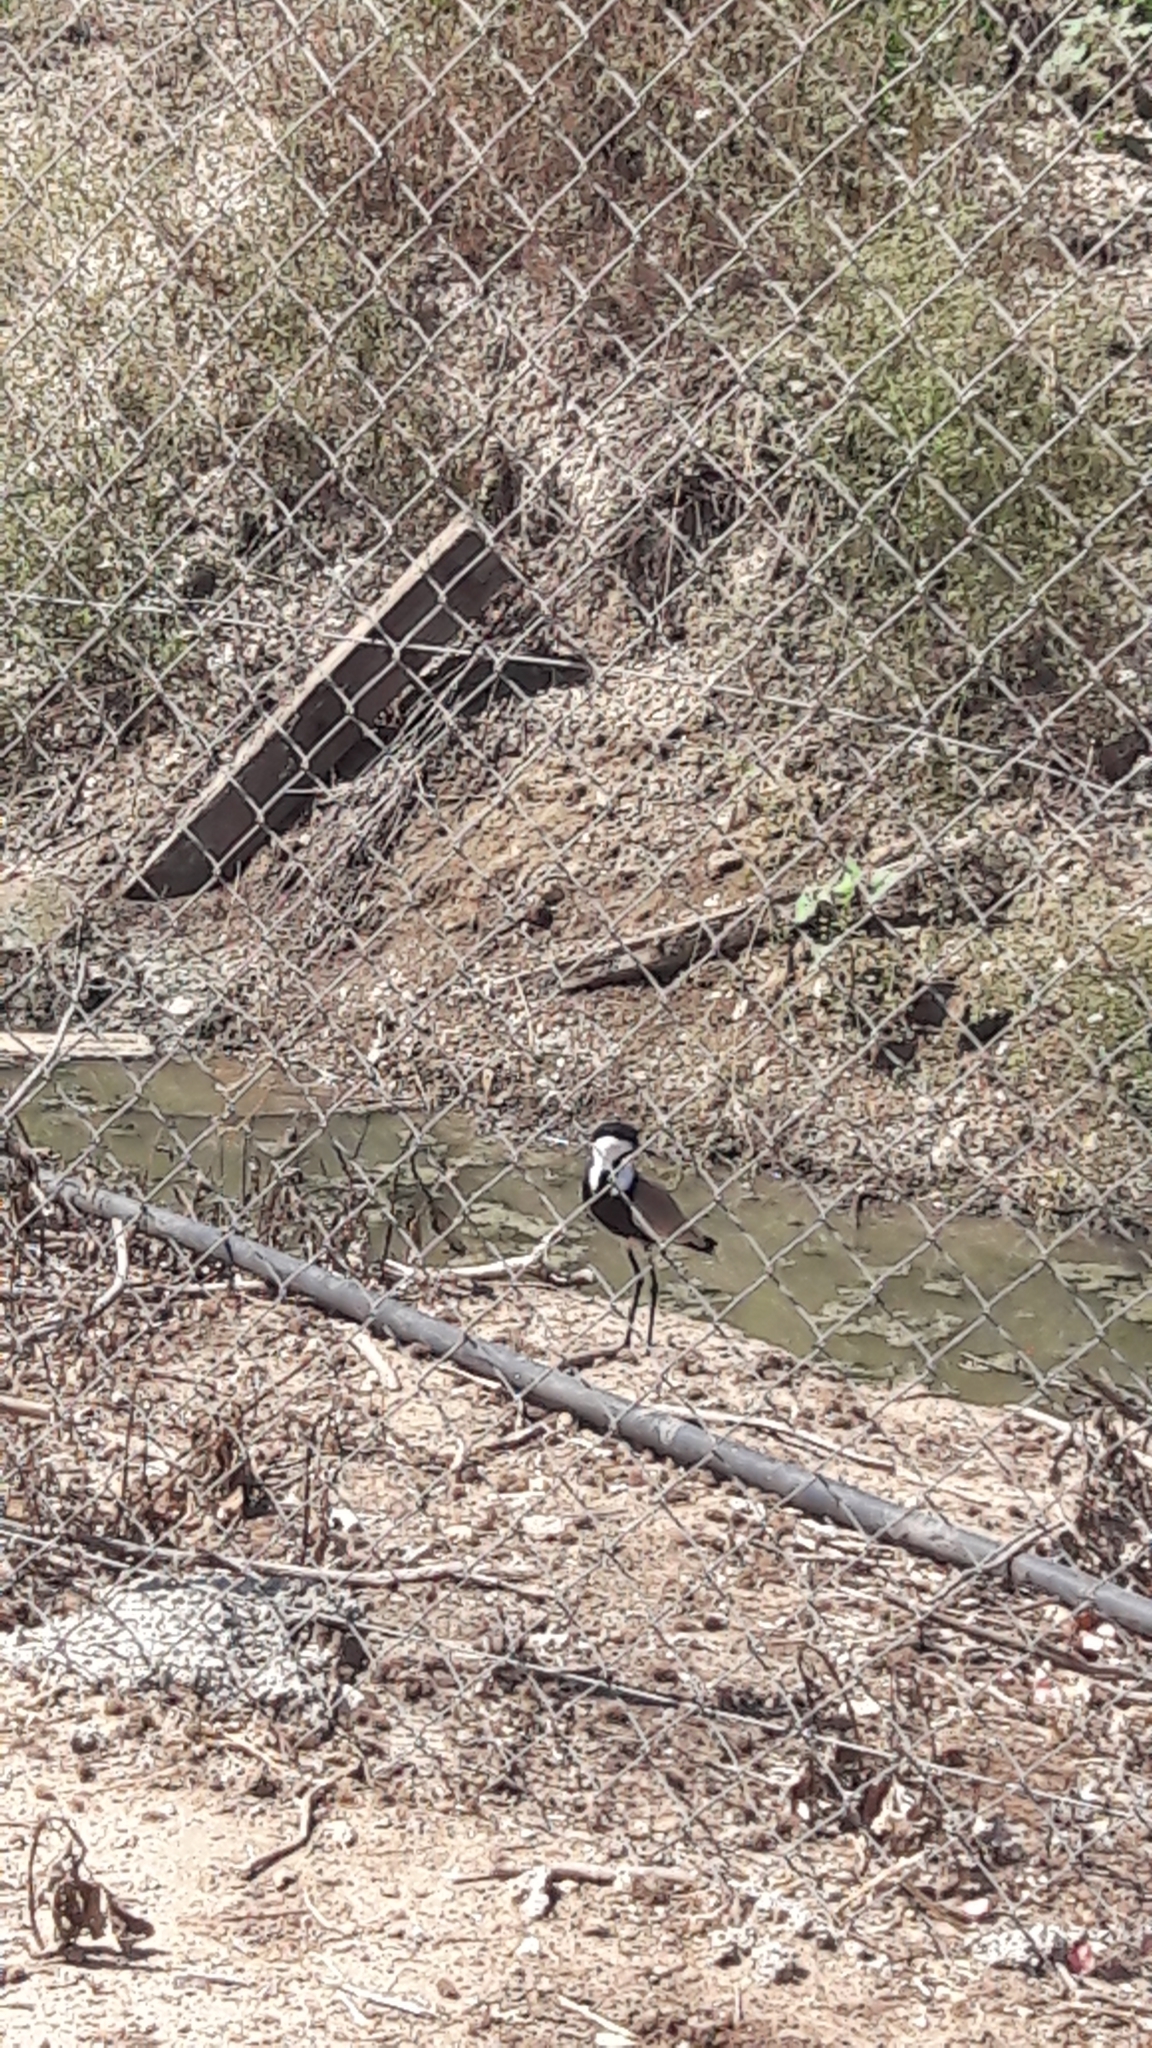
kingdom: Animalia
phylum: Chordata
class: Aves
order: Charadriiformes
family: Charadriidae
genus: Vanellus
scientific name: Vanellus spinosus
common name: Spur-winged lapwing
